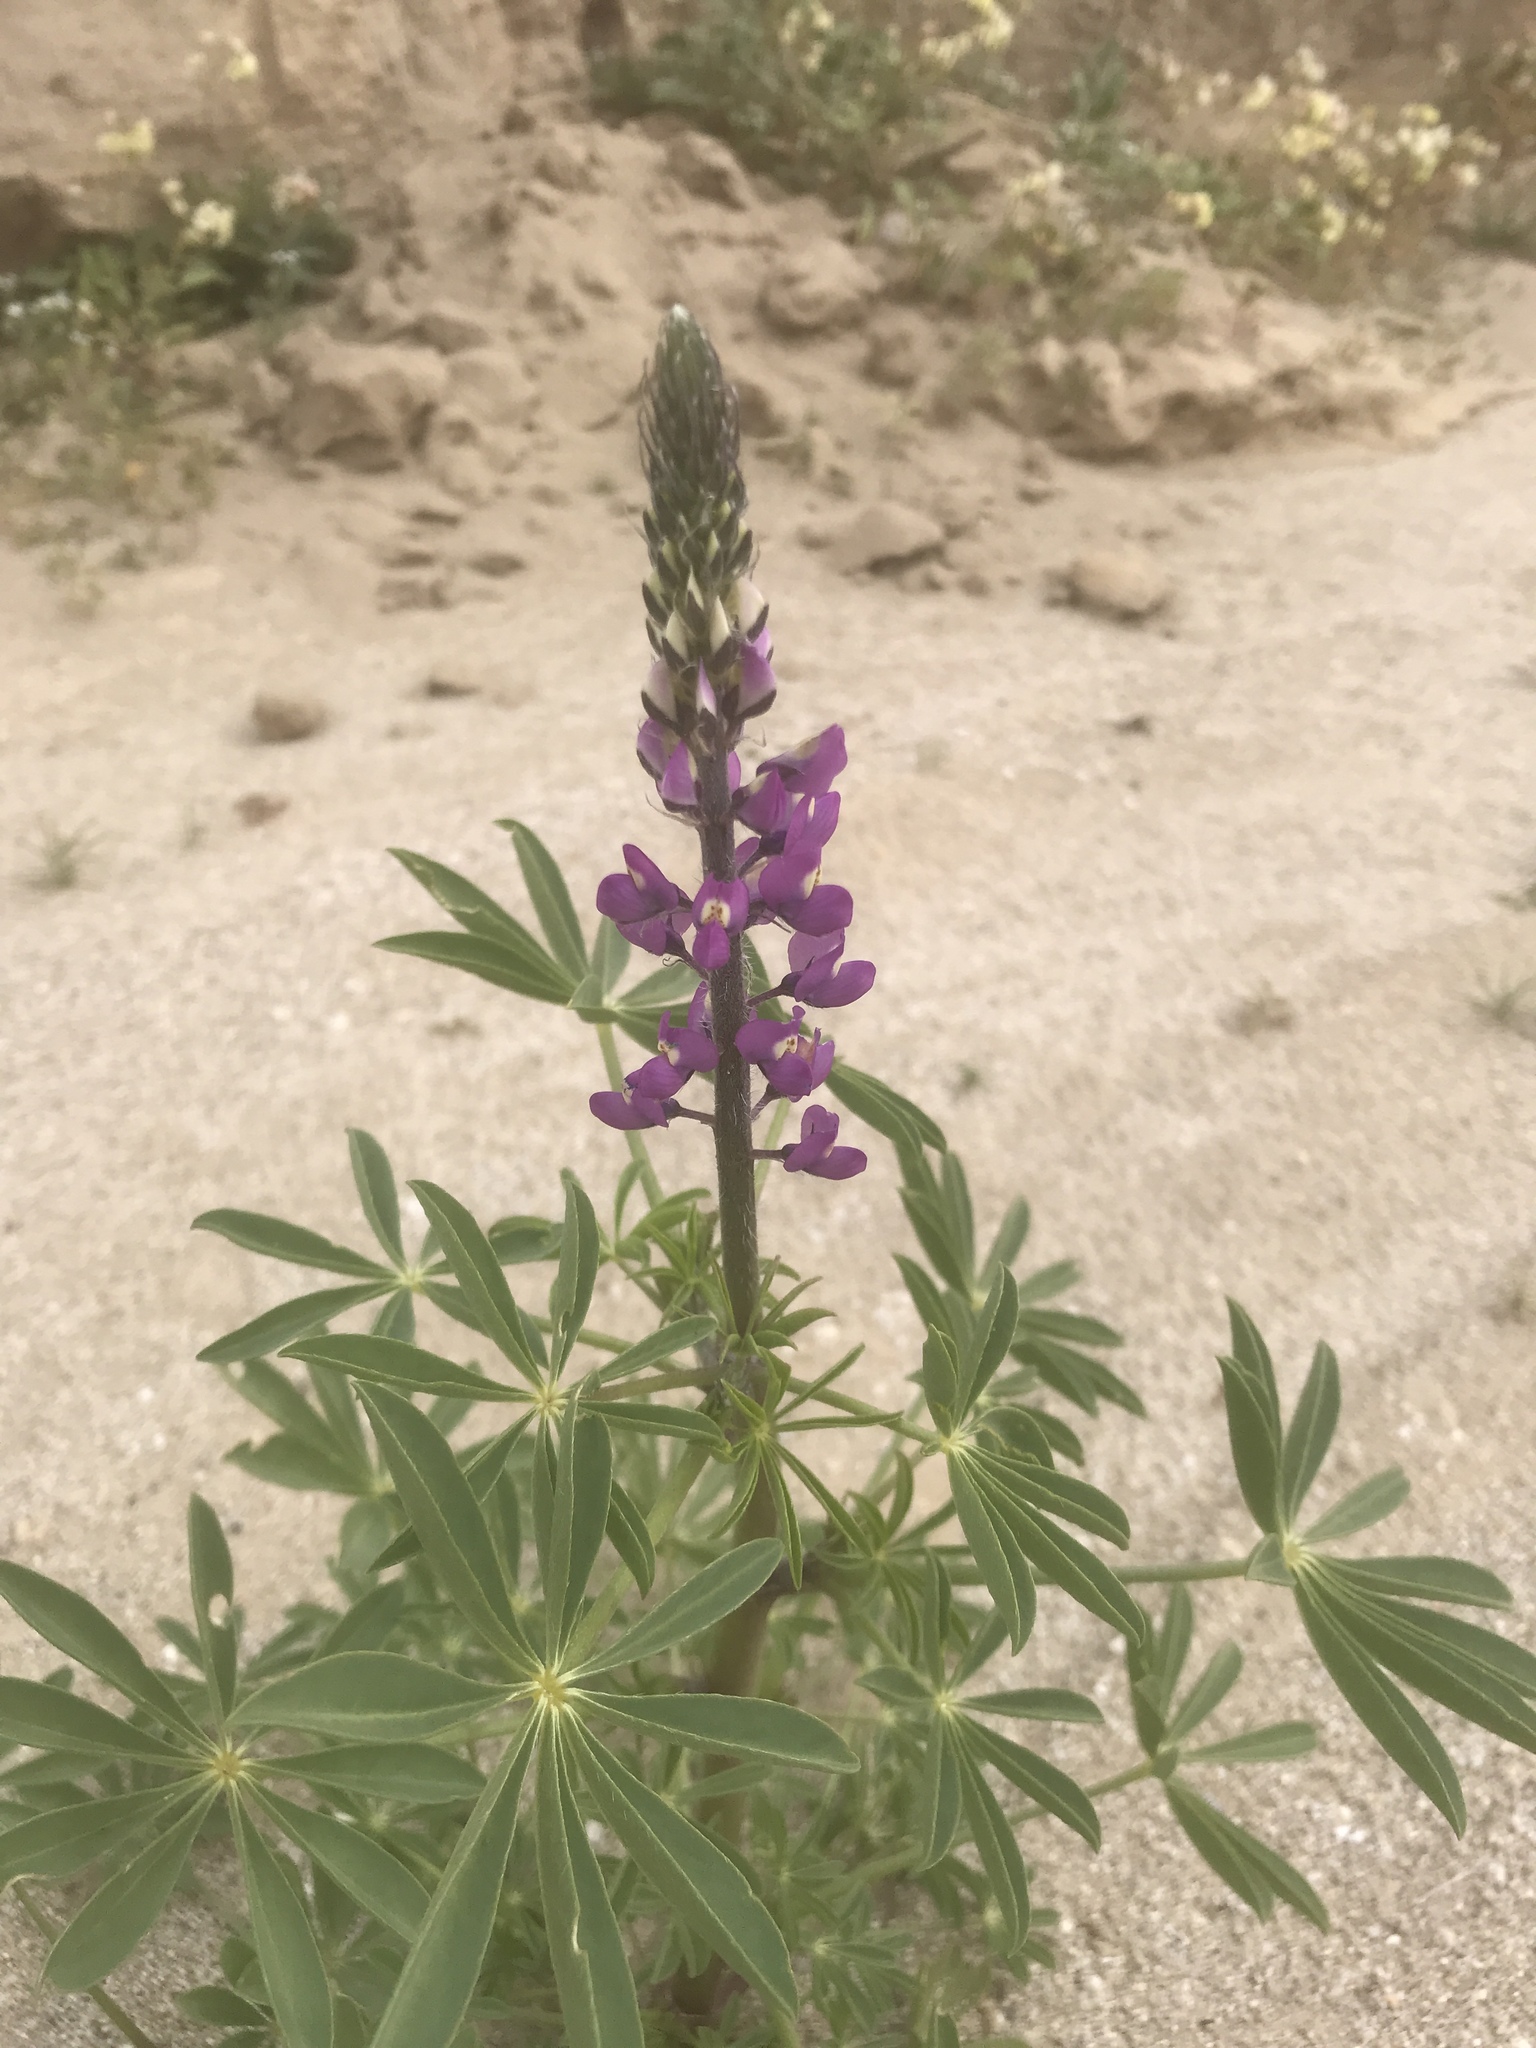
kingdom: Plantae
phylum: Tracheophyta
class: Magnoliopsida
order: Fabales
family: Fabaceae
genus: Lupinus
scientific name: Lupinus arizonicus
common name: Arizona lupine
